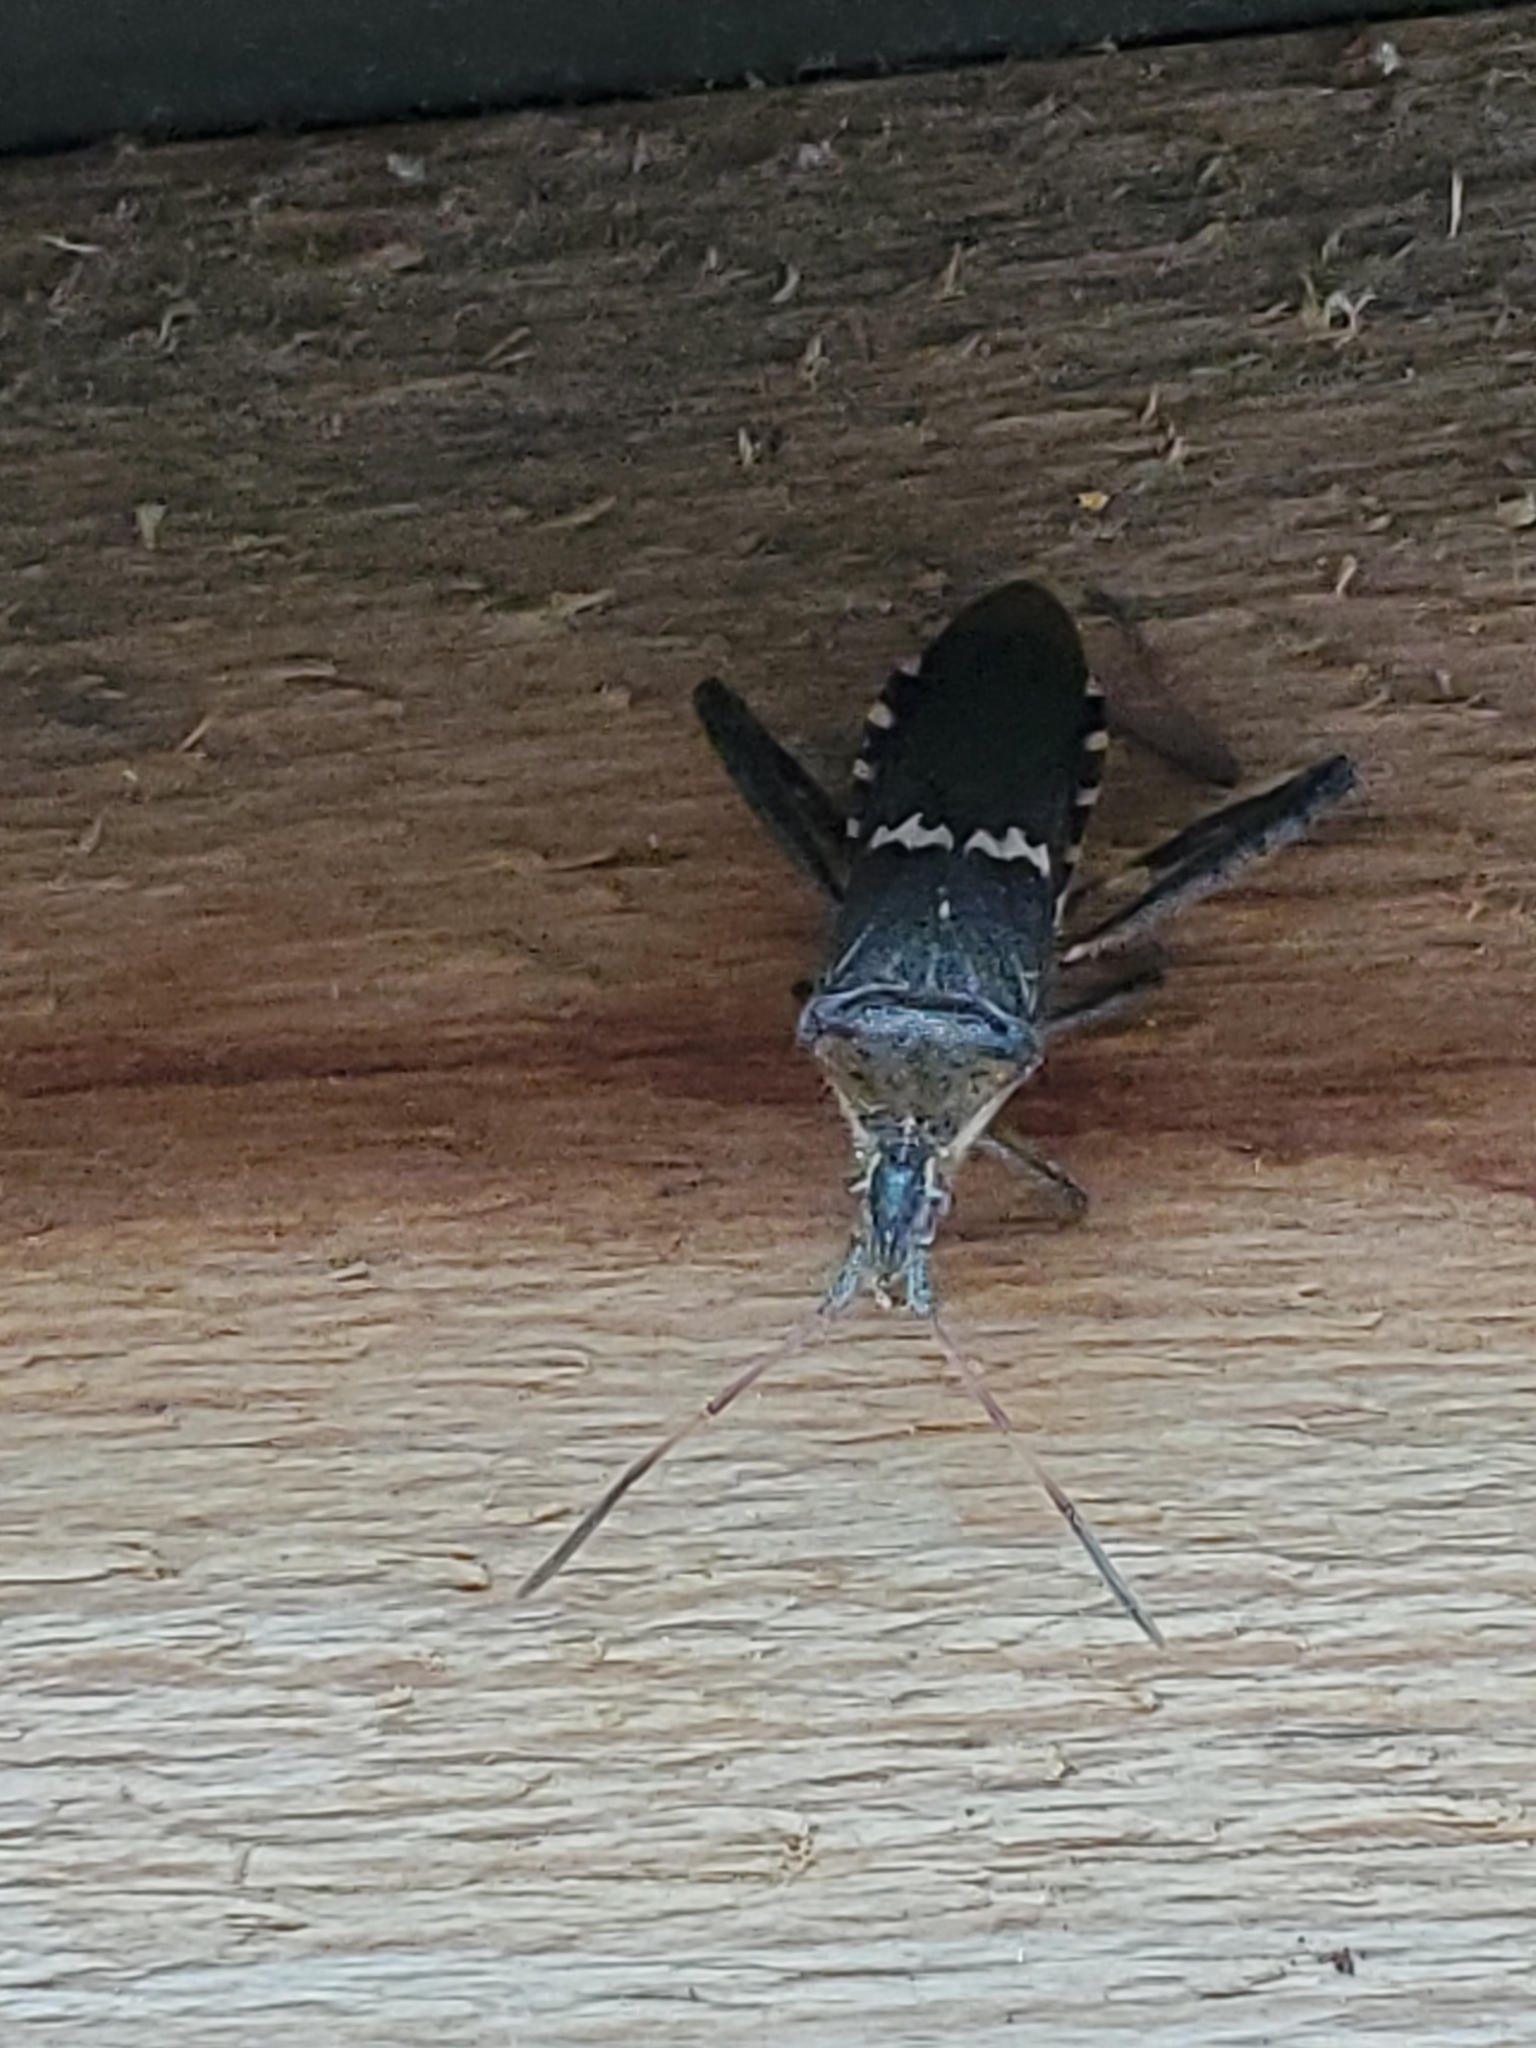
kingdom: Animalia
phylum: Arthropoda
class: Insecta
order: Hemiptera
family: Coreidae
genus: Leptoglossus
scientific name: Leptoglossus clypealis
